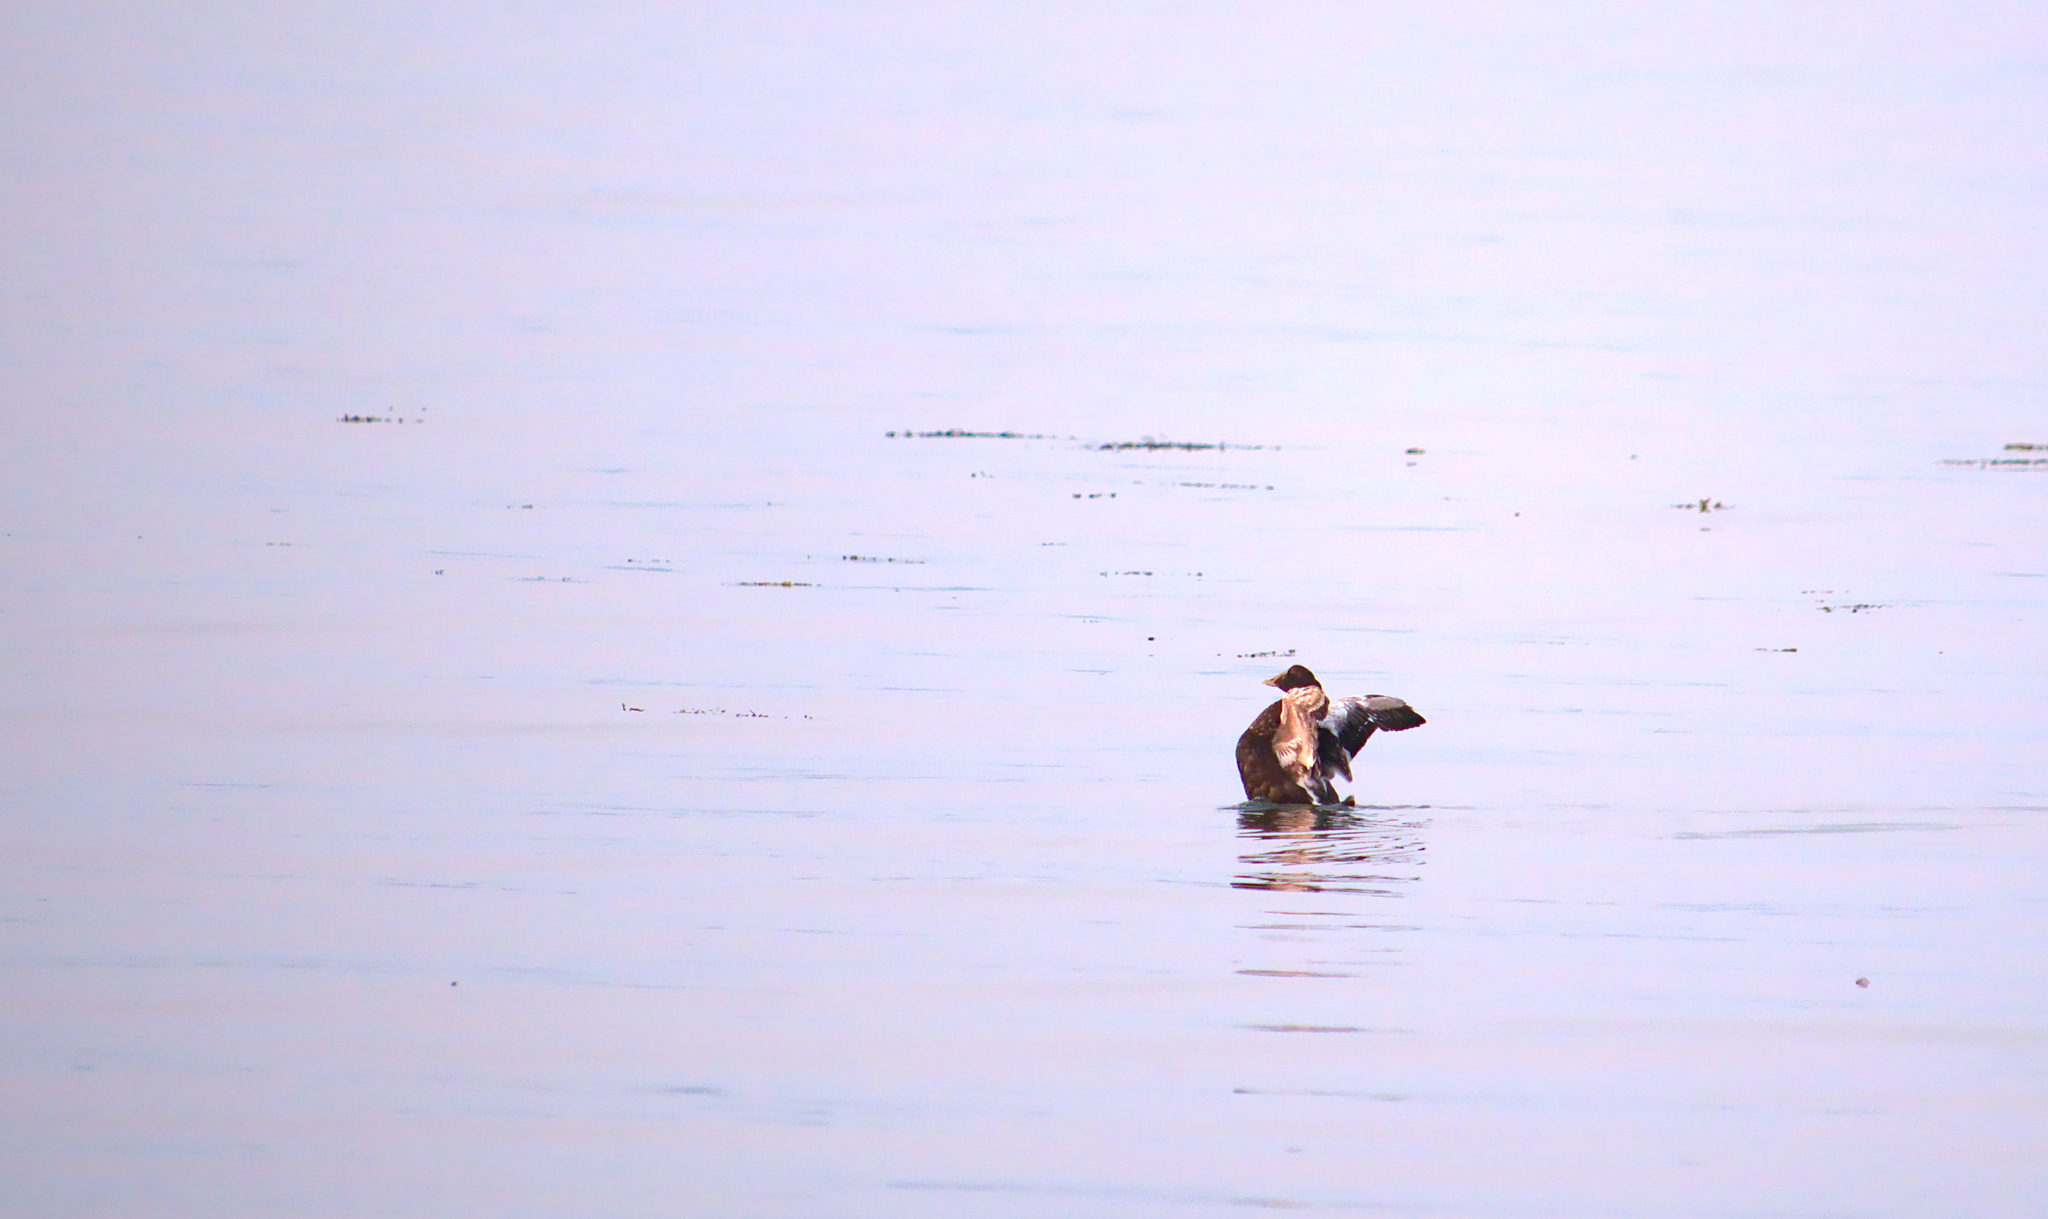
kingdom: Animalia
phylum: Chordata
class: Aves
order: Anseriformes
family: Anatidae
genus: Somateria
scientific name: Somateria mollissima
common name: Common eider
